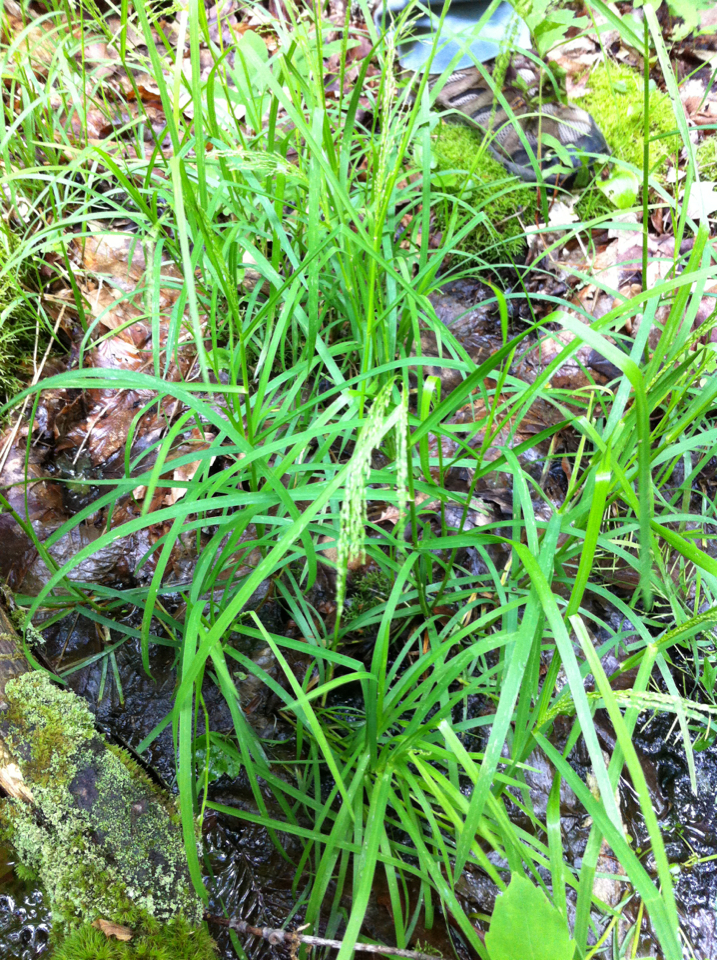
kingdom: Plantae
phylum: Tracheophyta
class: Liliopsida
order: Poales
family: Poaceae
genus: Glyceria
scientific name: Glyceria striata
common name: Fowl manna grass
